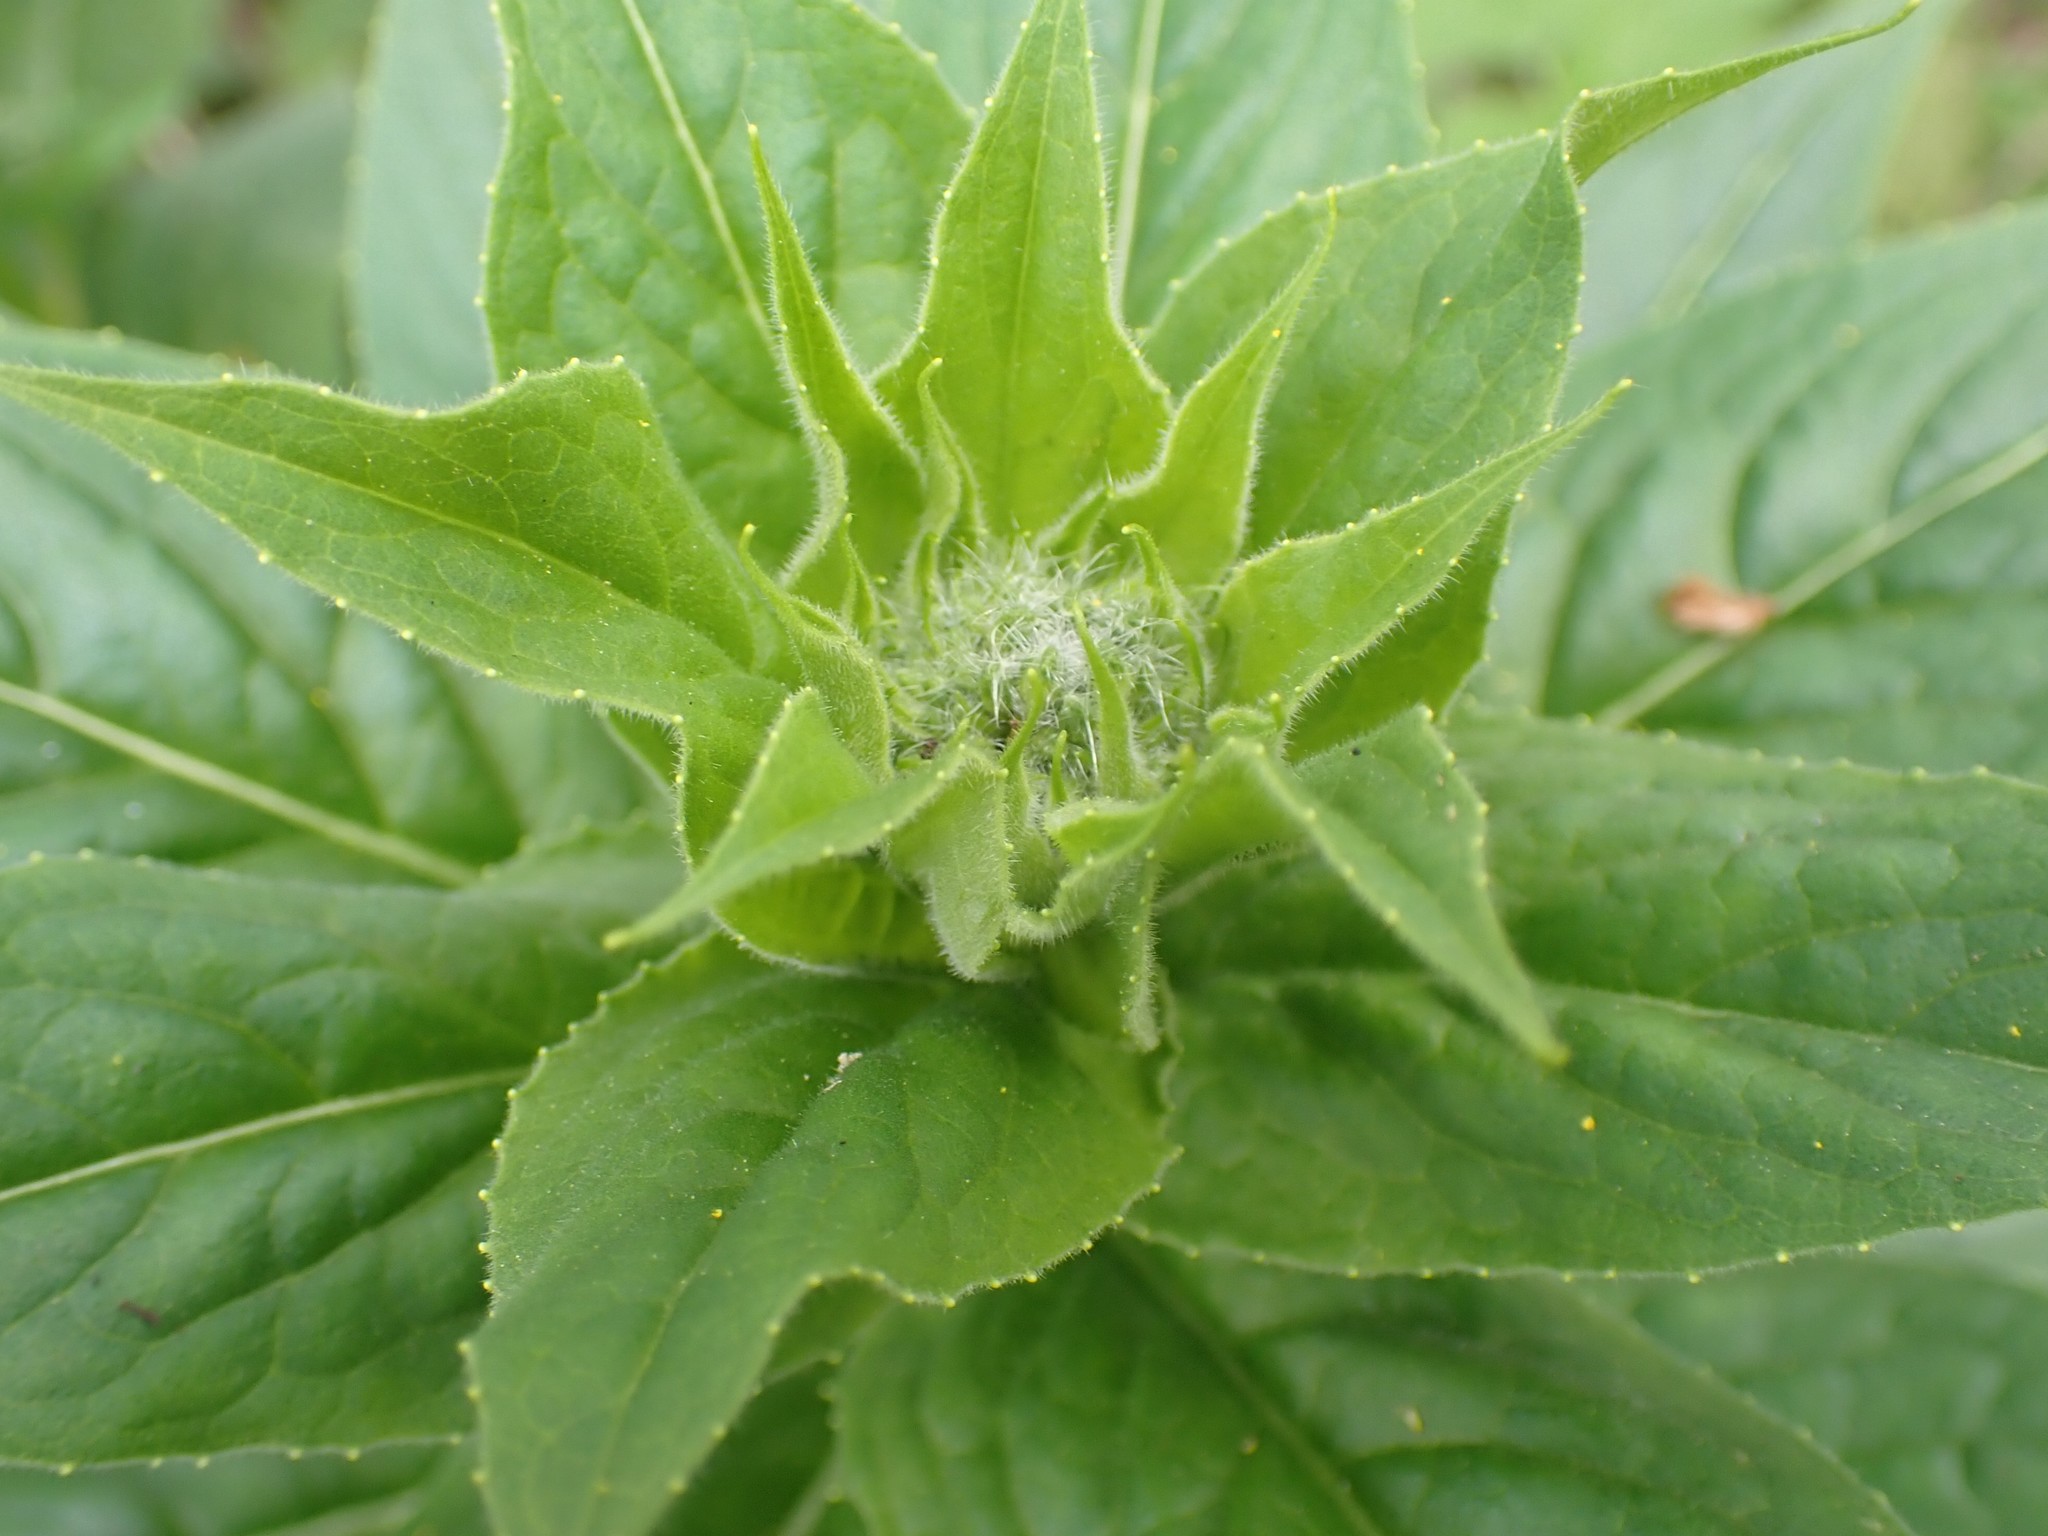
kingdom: Plantae
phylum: Tracheophyta
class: Magnoliopsida
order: Brassicales
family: Brassicaceae
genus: Hesperis
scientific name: Hesperis matronalis
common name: Dame's-violet
